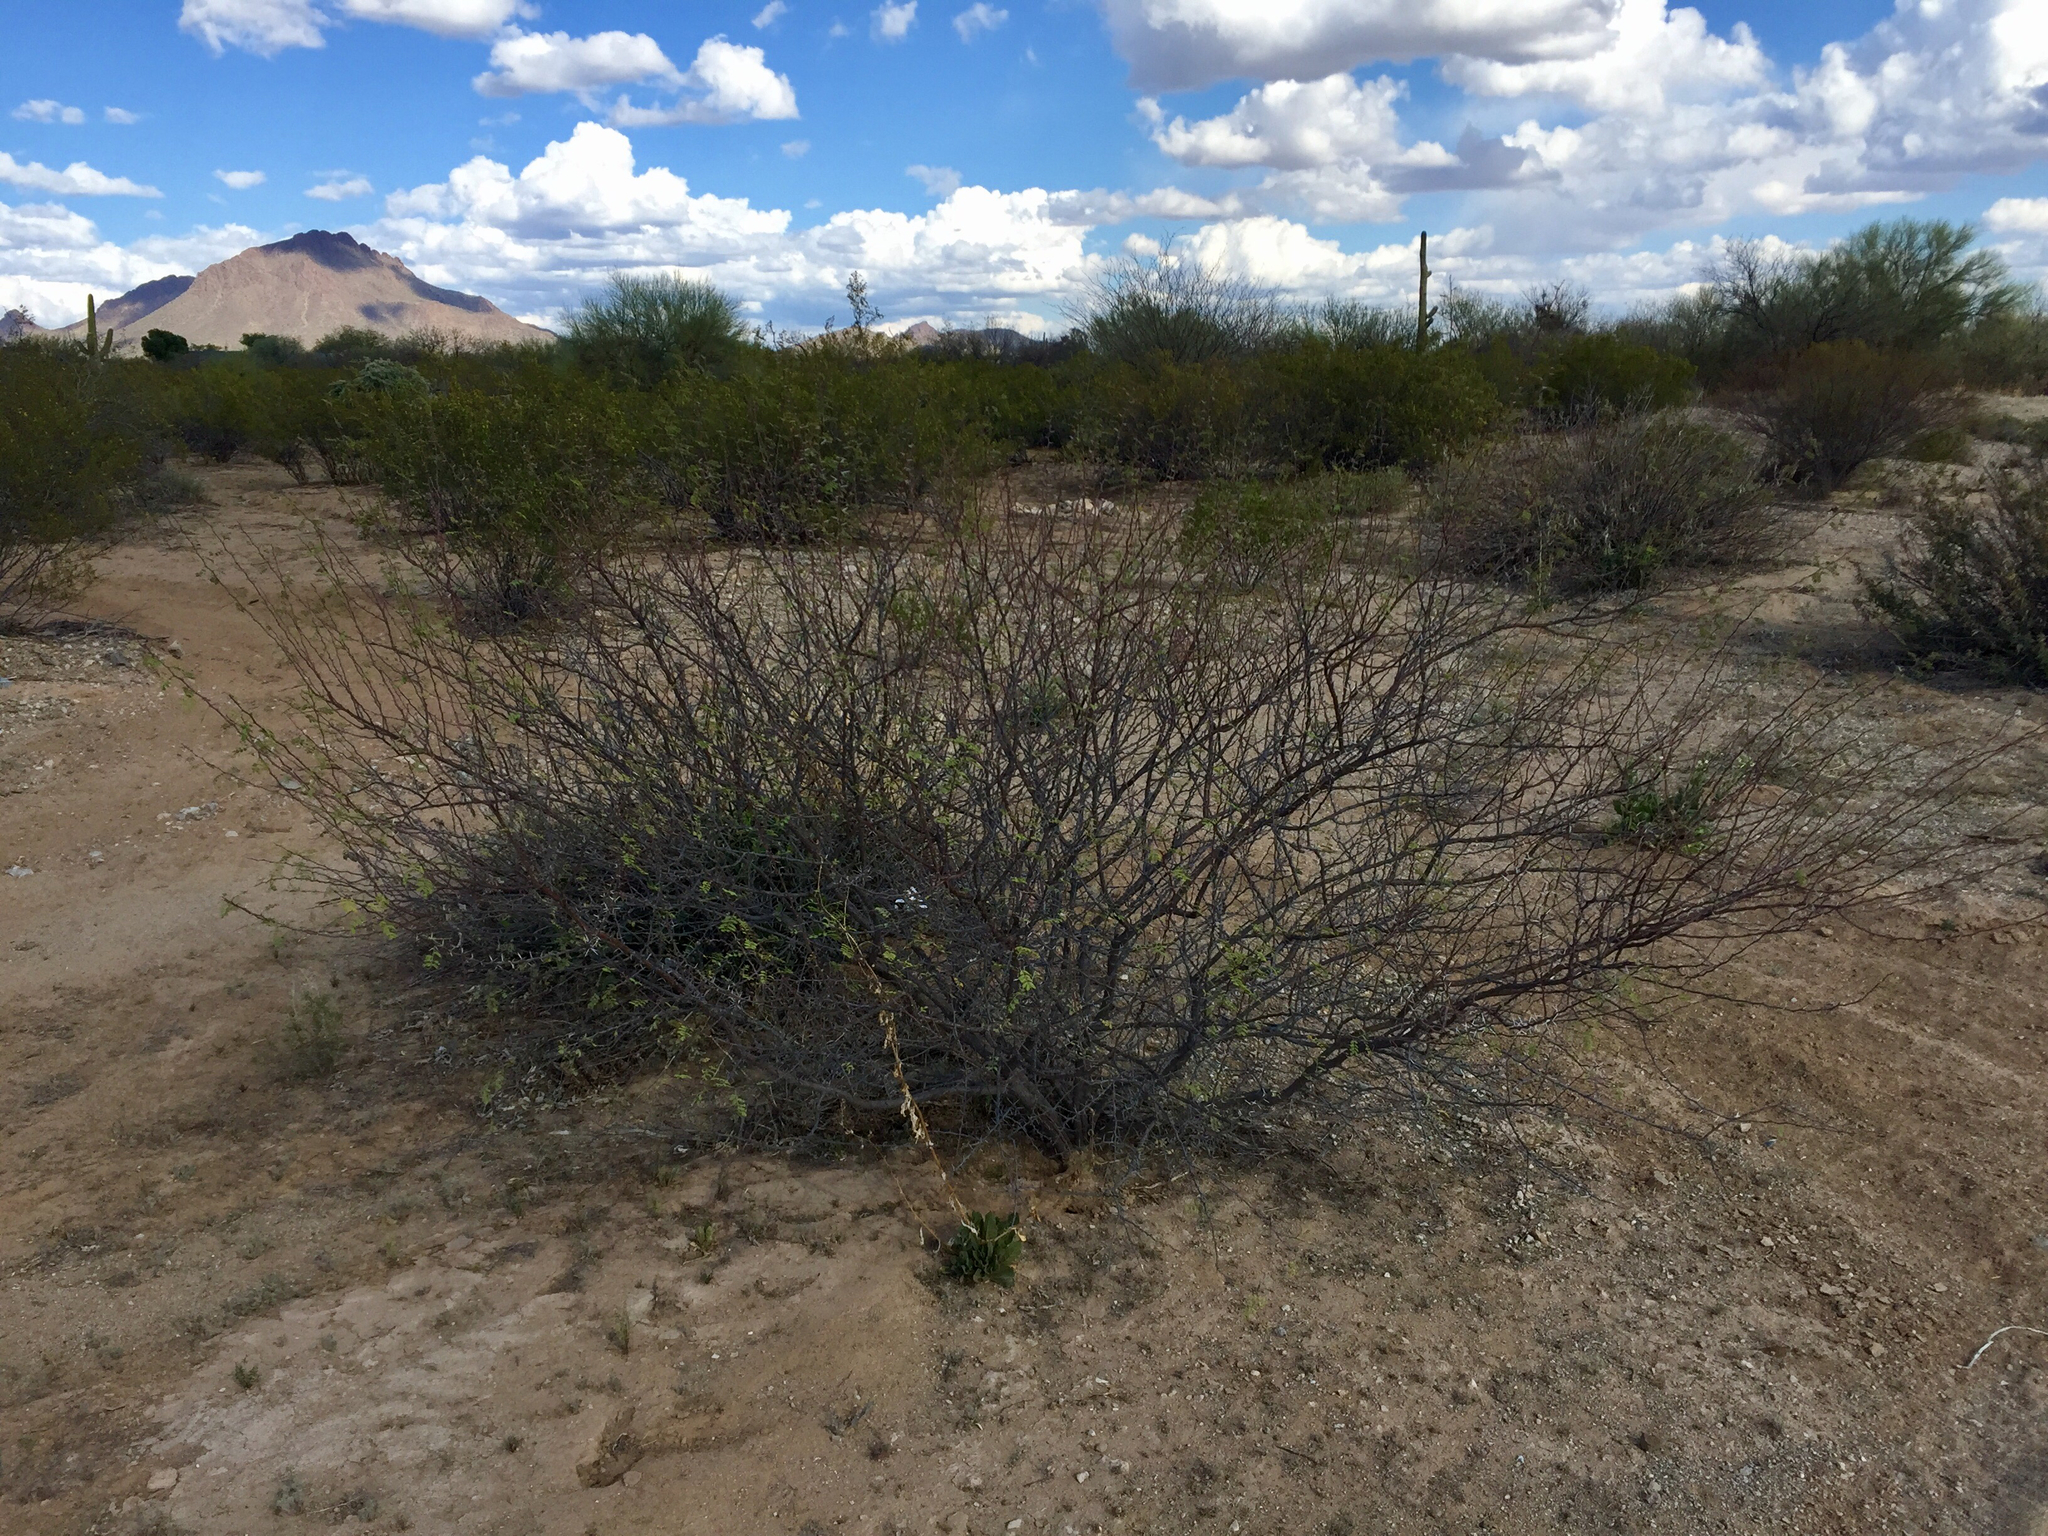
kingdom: Plantae
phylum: Tracheophyta
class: Magnoliopsida
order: Fabales
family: Fabaceae
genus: Vachellia
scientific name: Vachellia constricta
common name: Mescat acacia
